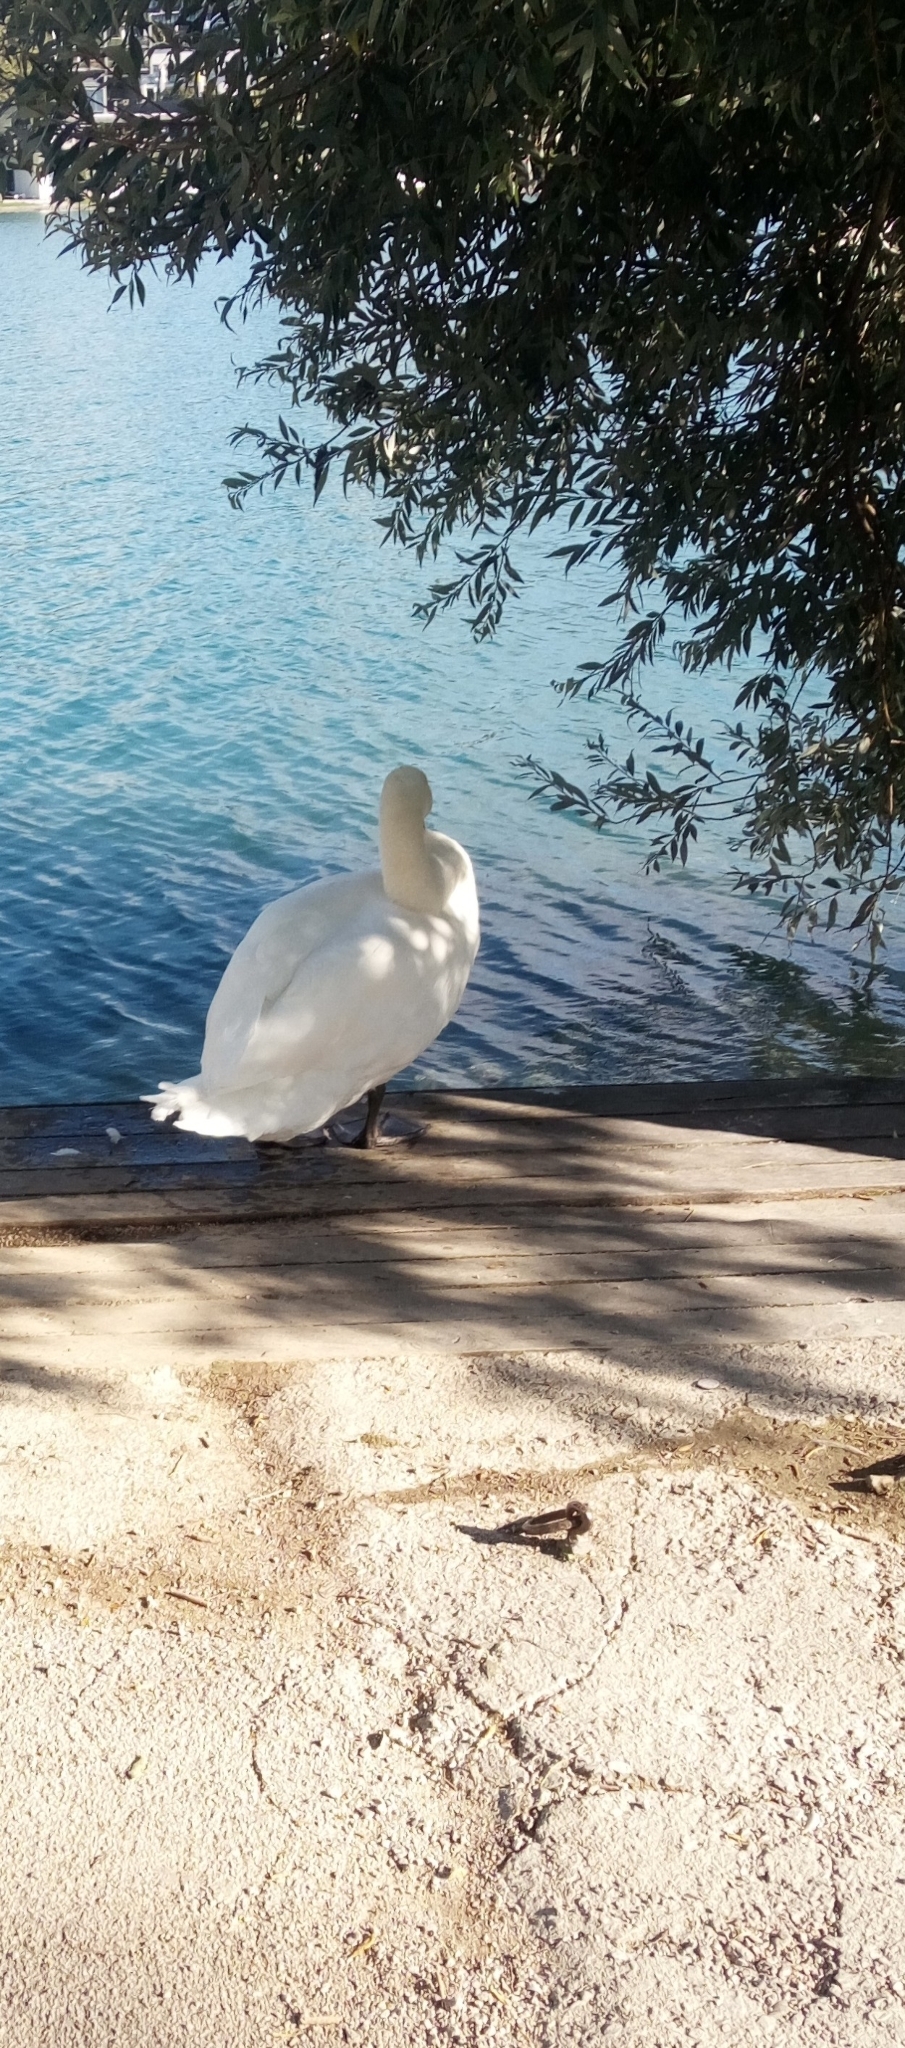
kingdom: Animalia
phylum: Chordata
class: Aves
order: Anseriformes
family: Anatidae
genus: Cygnus
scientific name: Cygnus olor
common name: Mute swan
